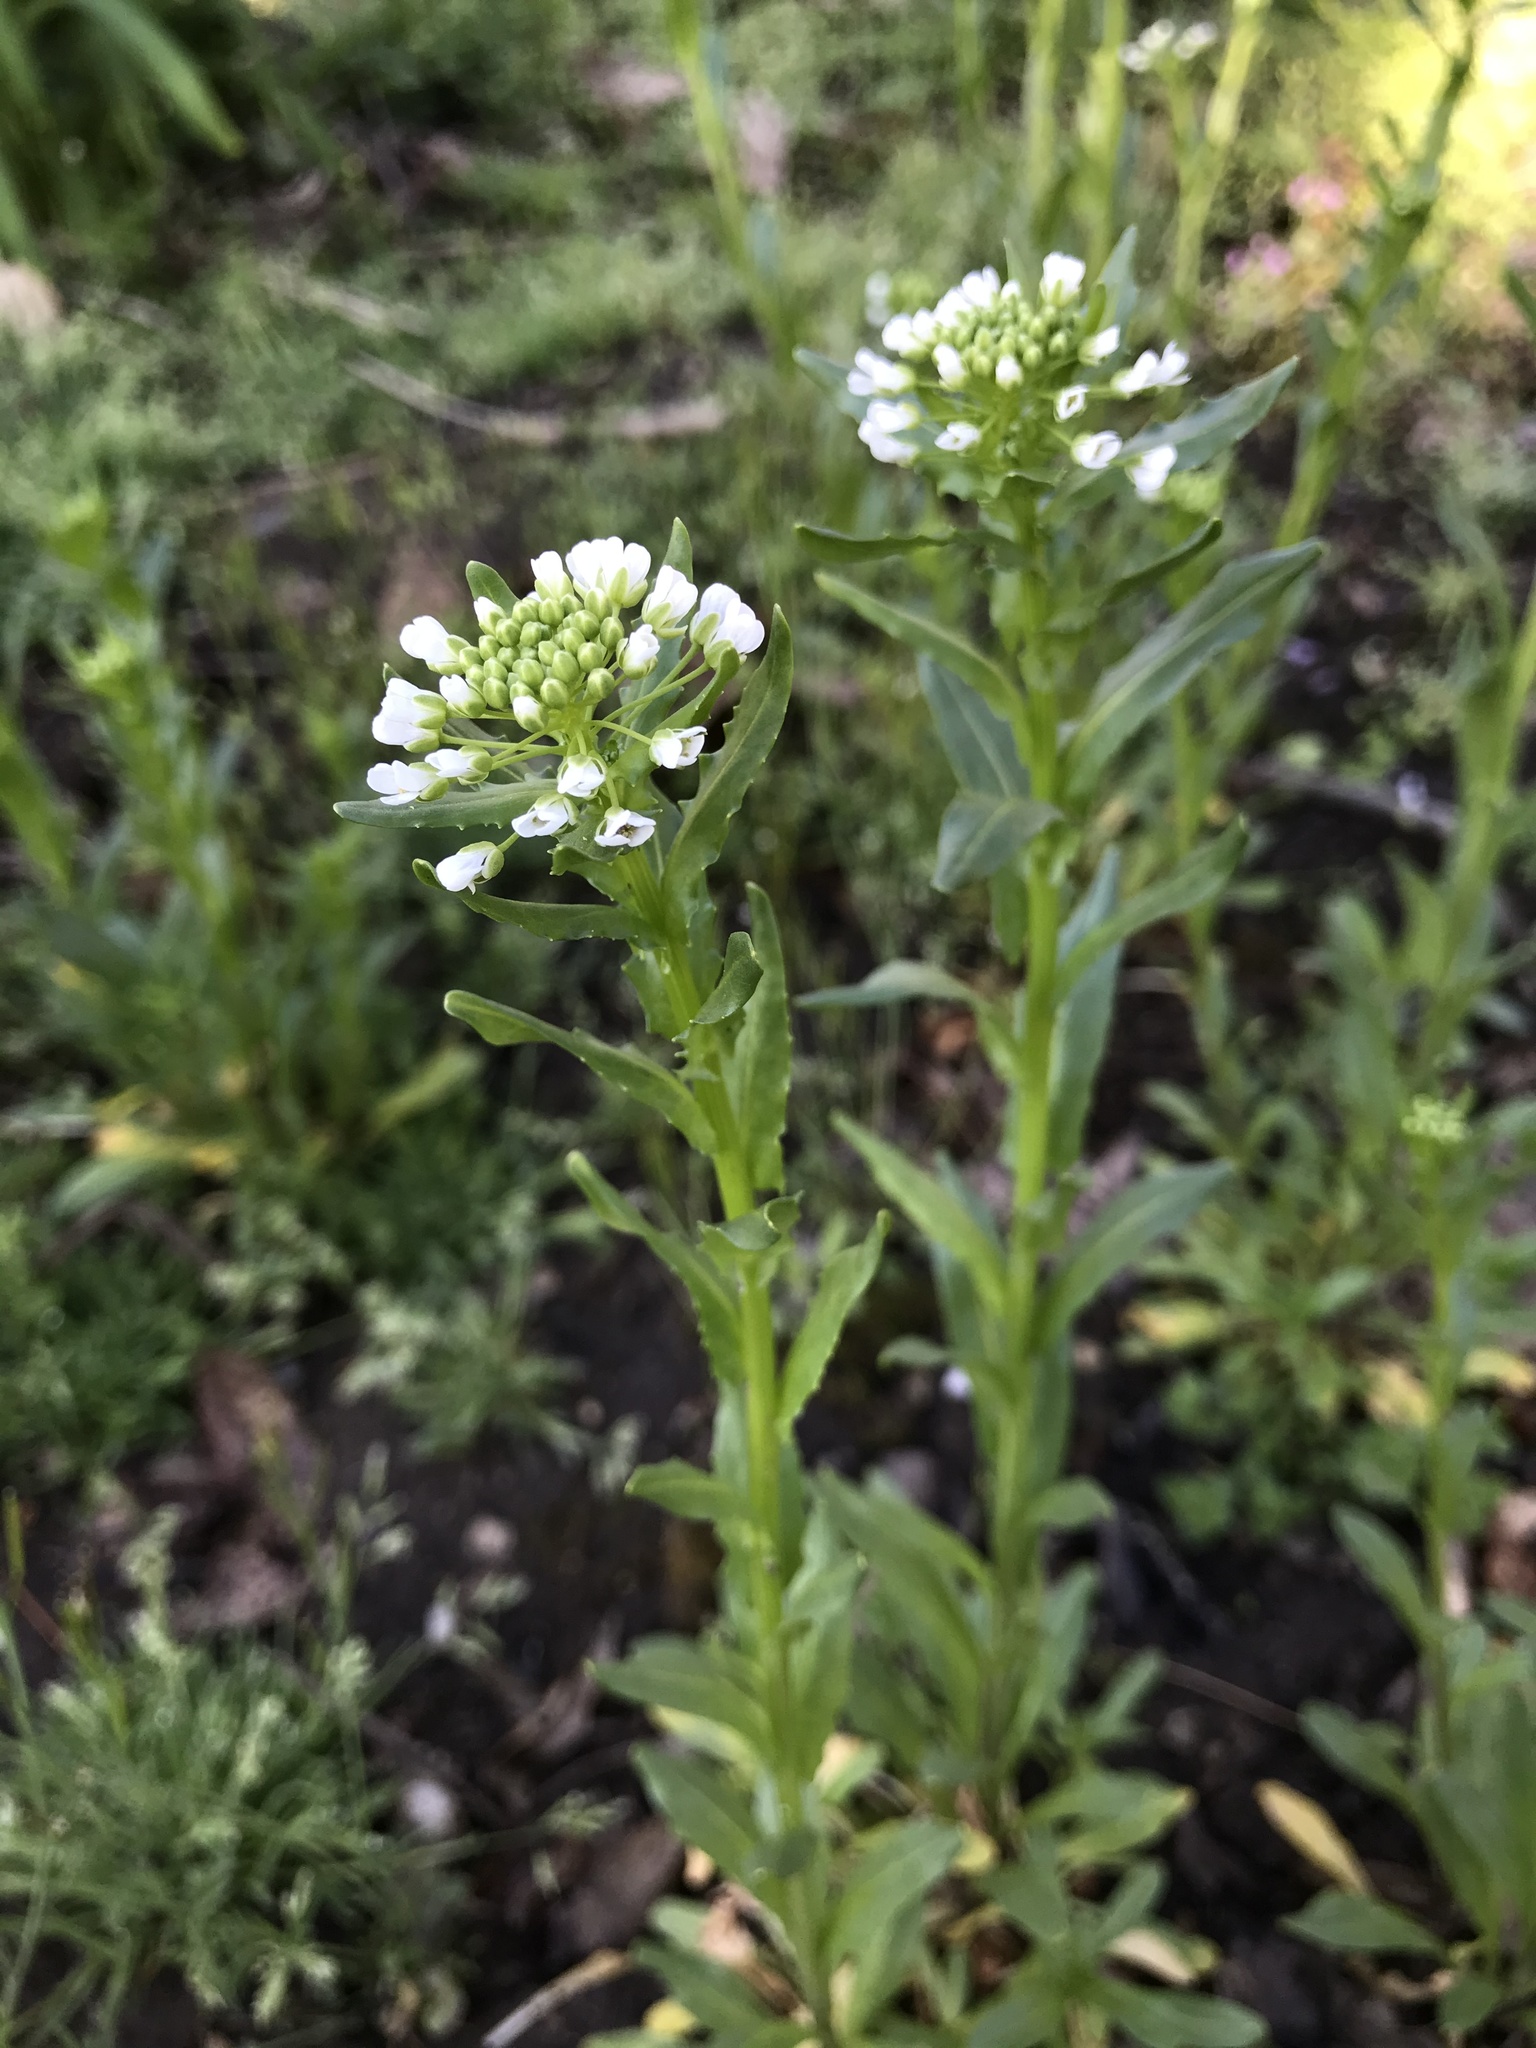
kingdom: Plantae
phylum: Tracheophyta
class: Magnoliopsida
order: Brassicales
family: Brassicaceae
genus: Thlaspi
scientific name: Thlaspi arvense
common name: Field pennycress
